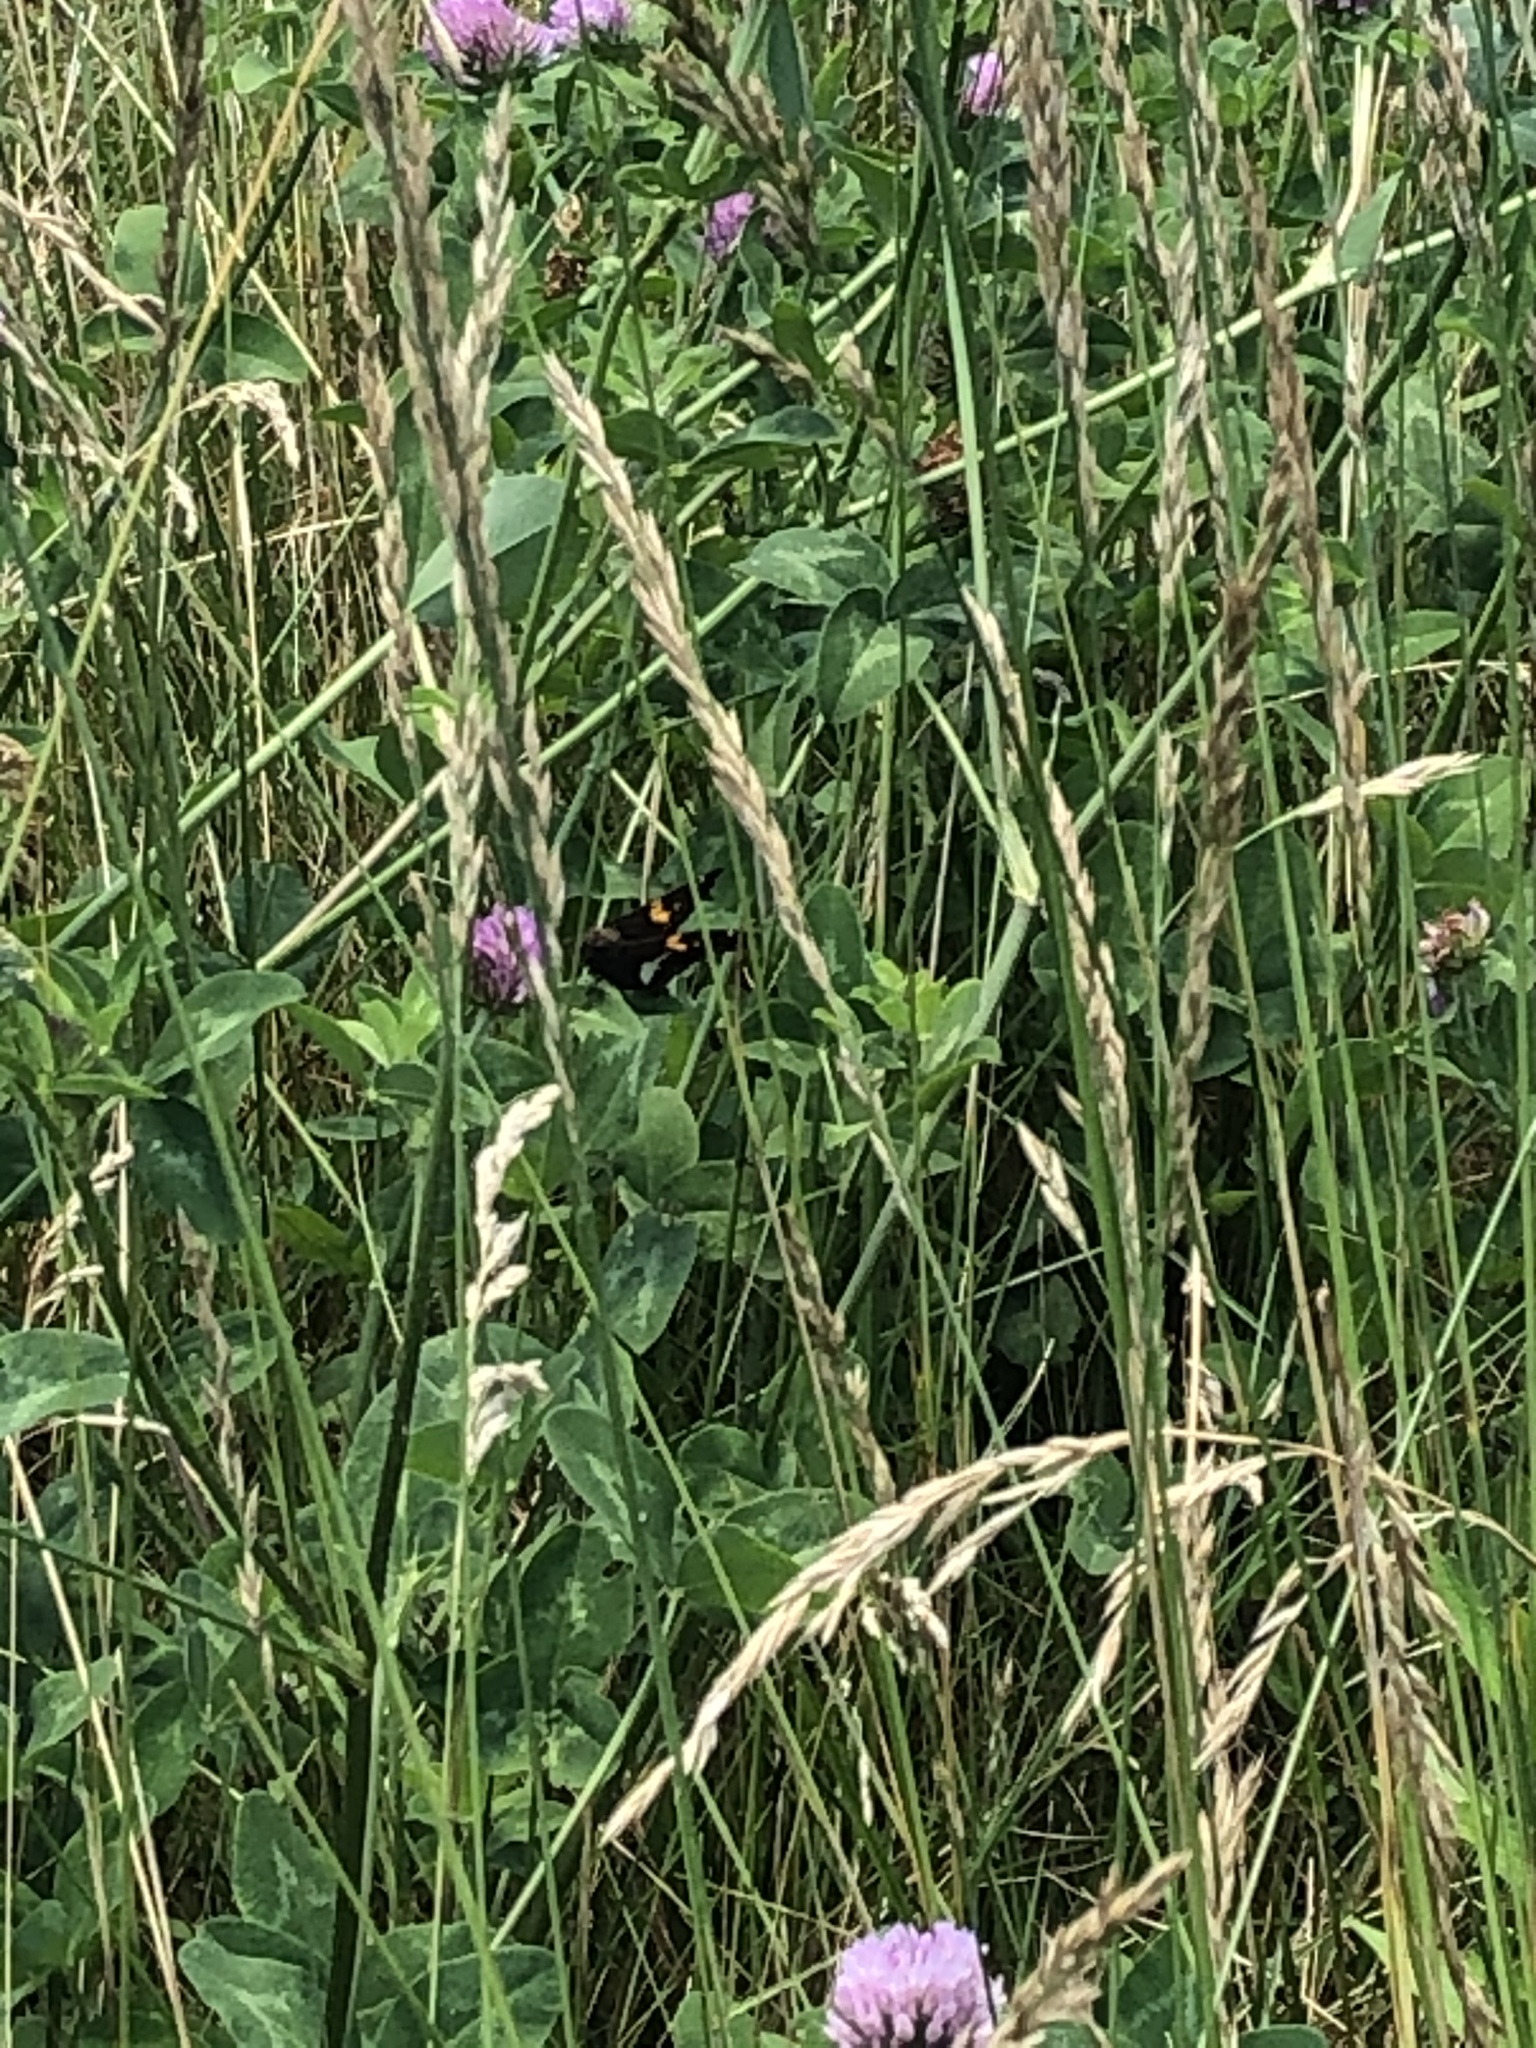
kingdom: Animalia
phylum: Arthropoda
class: Insecta
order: Lepidoptera
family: Hesperiidae
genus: Epargyreus
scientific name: Epargyreus clarus
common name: Silver-spotted skipper
